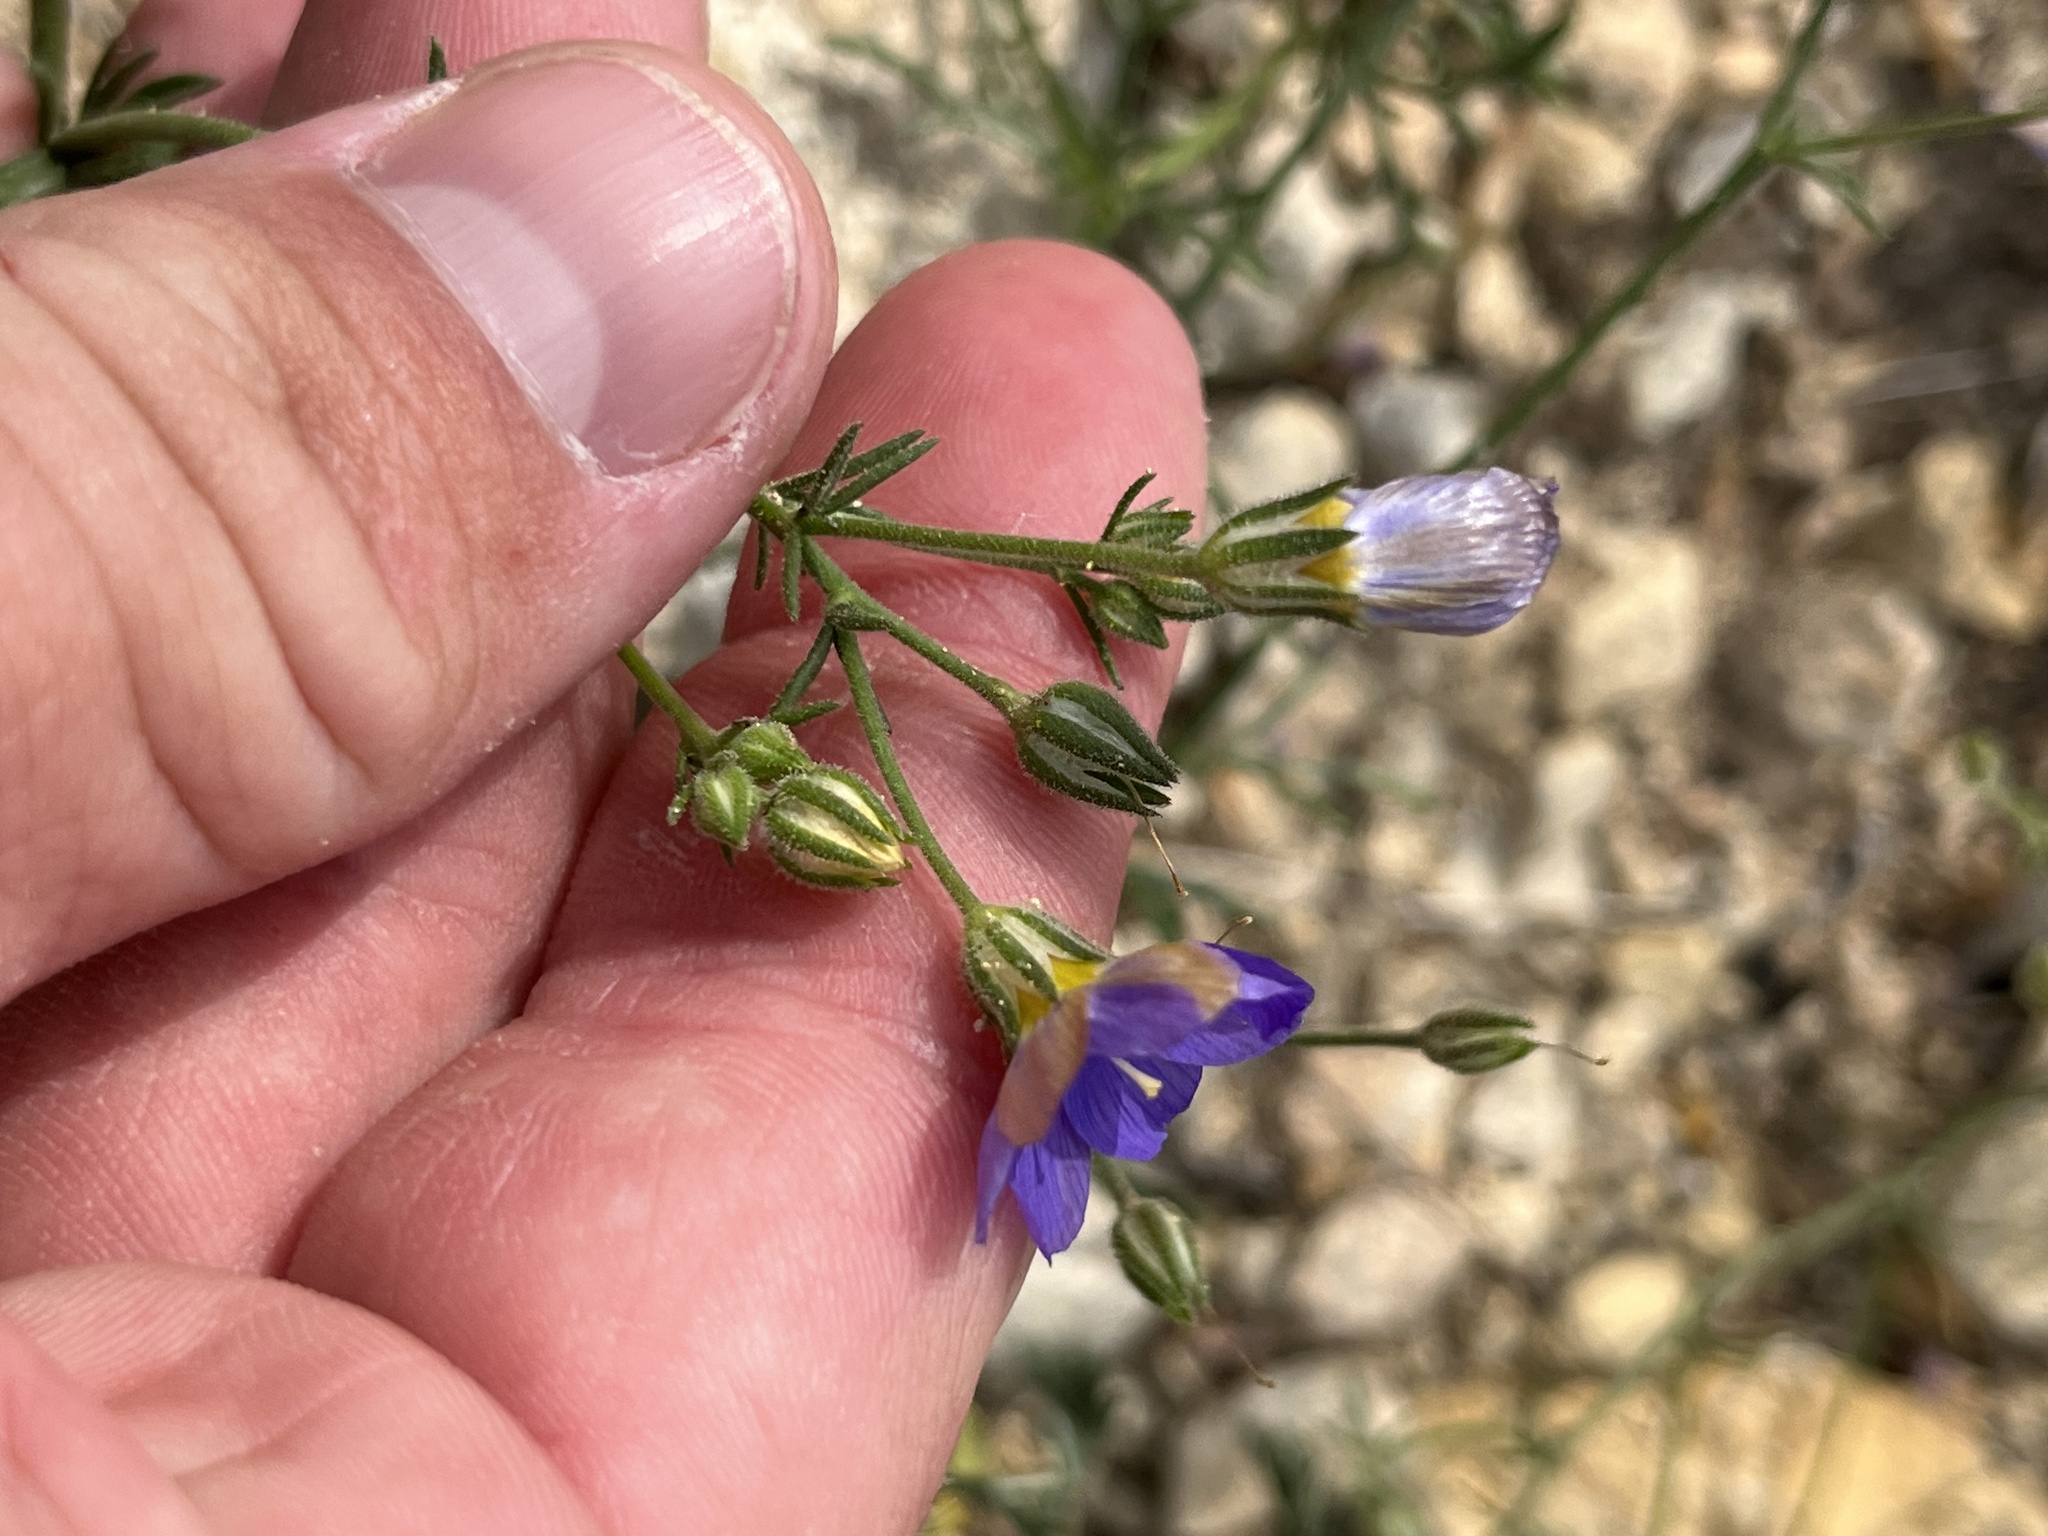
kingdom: Plantae
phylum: Tracheophyta
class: Magnoliopsida
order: Ericales
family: Polemoniaceae
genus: Giliastrum
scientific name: Giliastrum rigidulum
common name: Bluebowls
